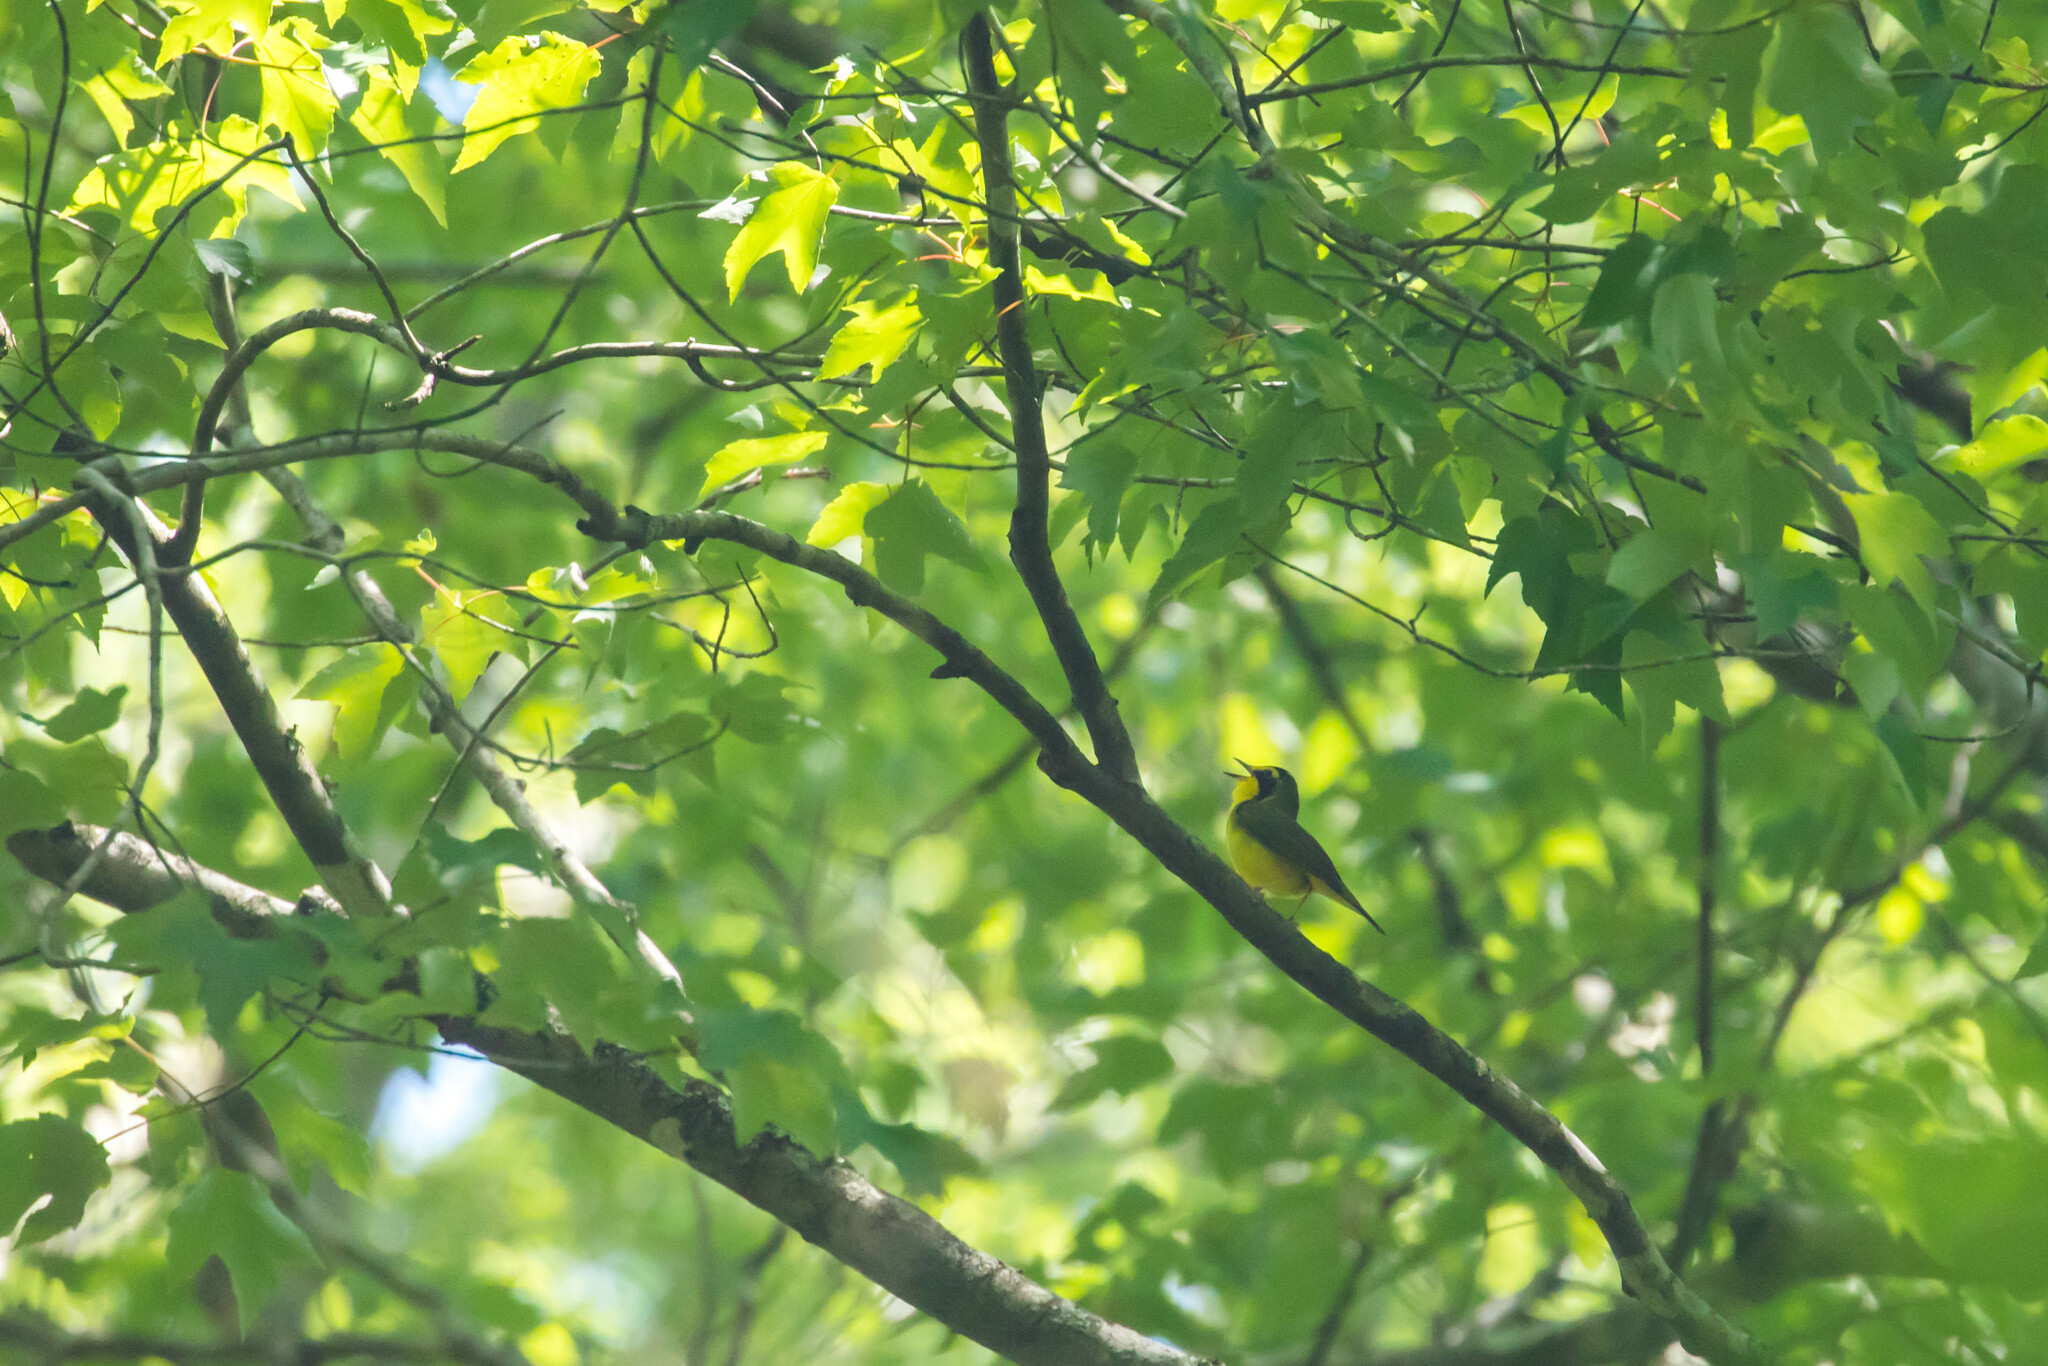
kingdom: Animalia
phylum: Chordata
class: Aves
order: Passeriformes
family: Parulidae
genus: Geothlypis
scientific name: Geothlypis formosa
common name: Kentucky warbler
